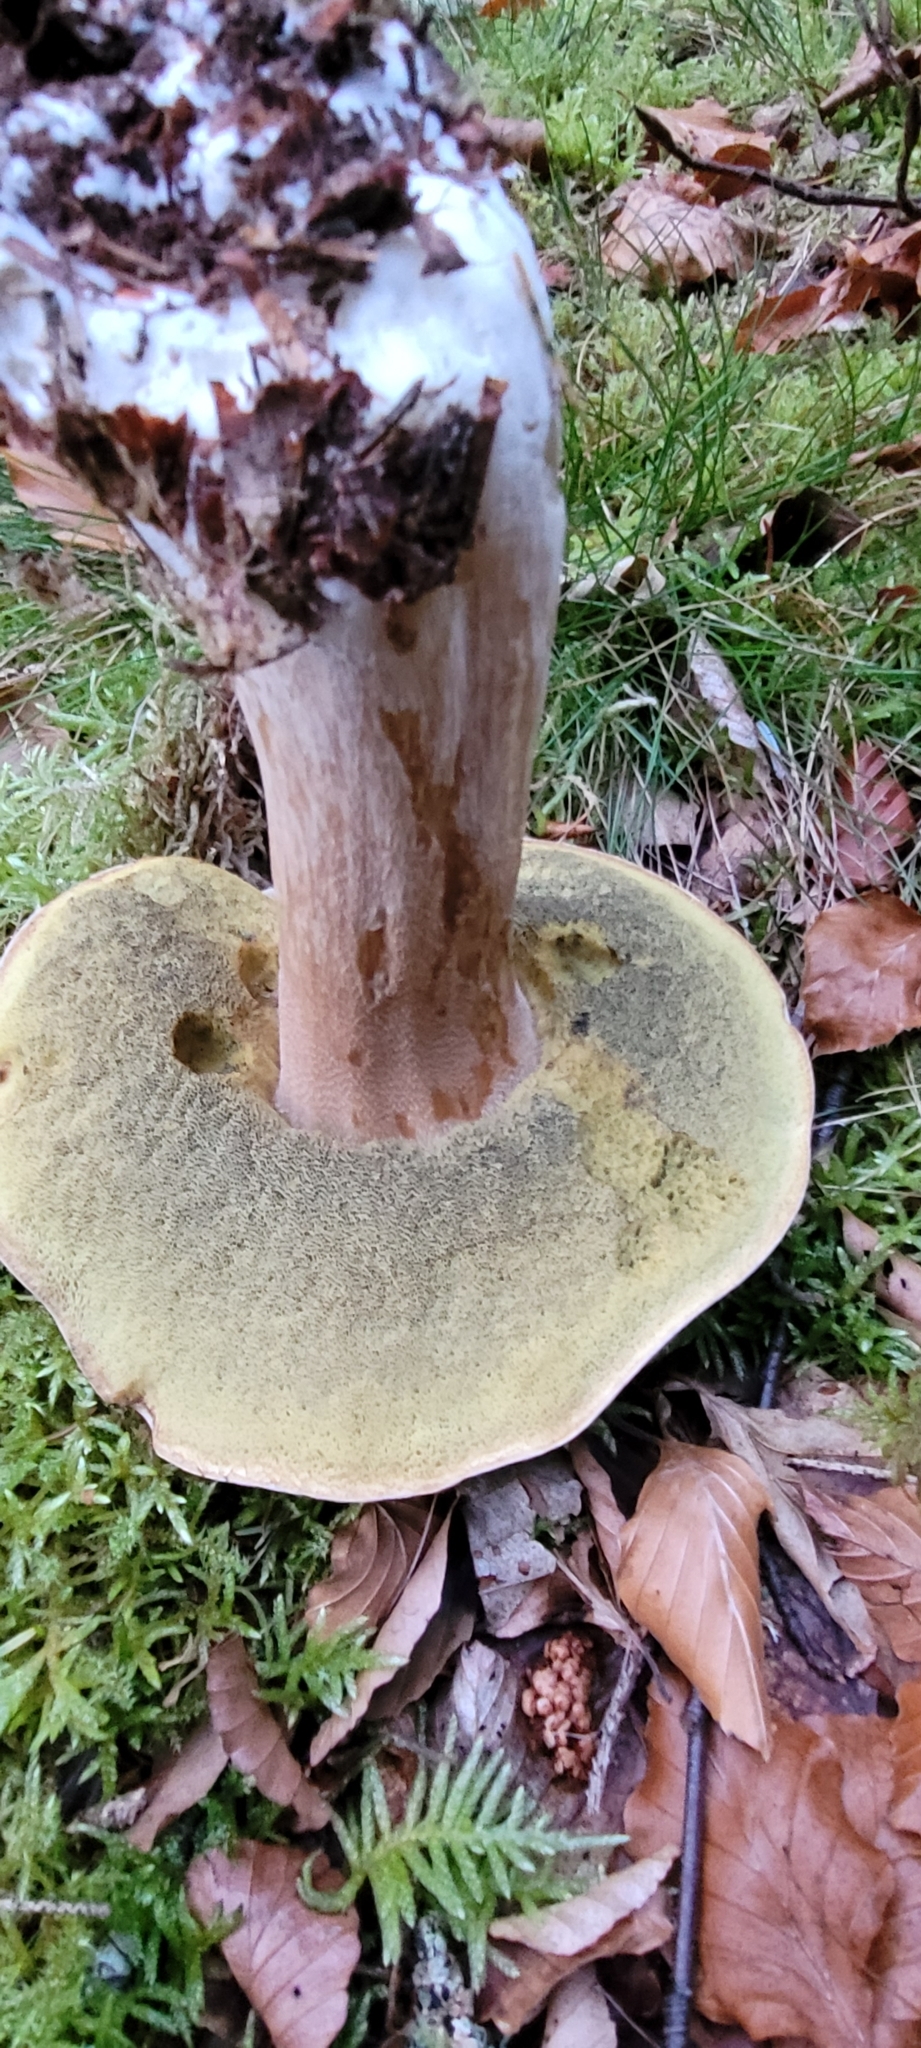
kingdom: Fungi
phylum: Basidiomycota
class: Agaricomycetes
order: Boletales
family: Boletaceae
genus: Boletus
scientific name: Boletus edulis
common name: Cep
